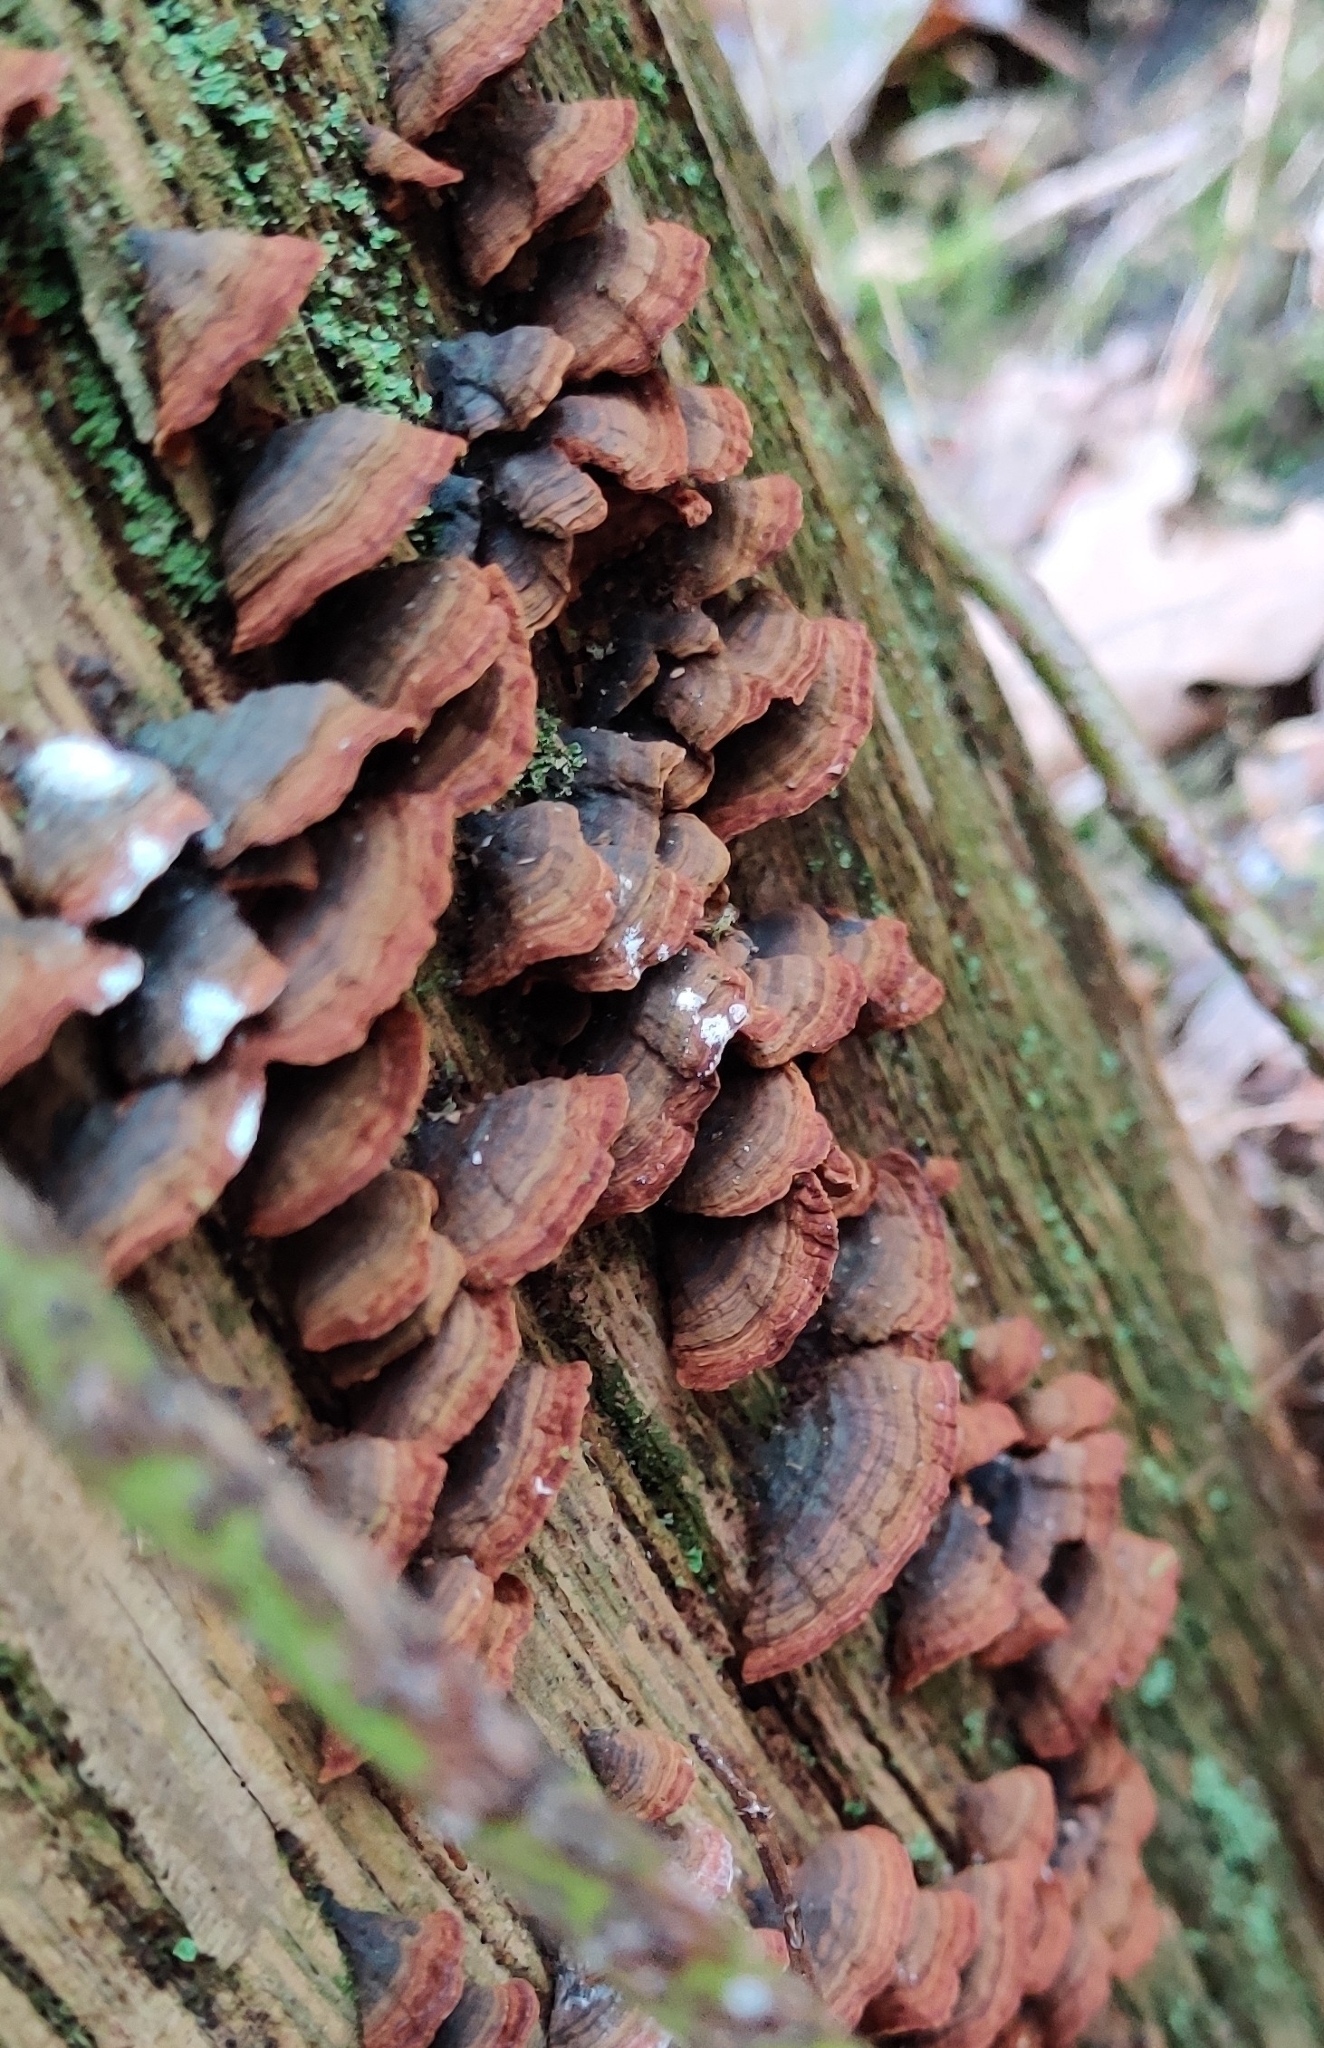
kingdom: Fungi
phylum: Basidiomycota
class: Agaricomycetes
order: Hymenochaetales
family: Hymenochaetaceae
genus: Hymenochaete
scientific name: Hymenochaete rubiginosa
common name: Oak curtain crust
